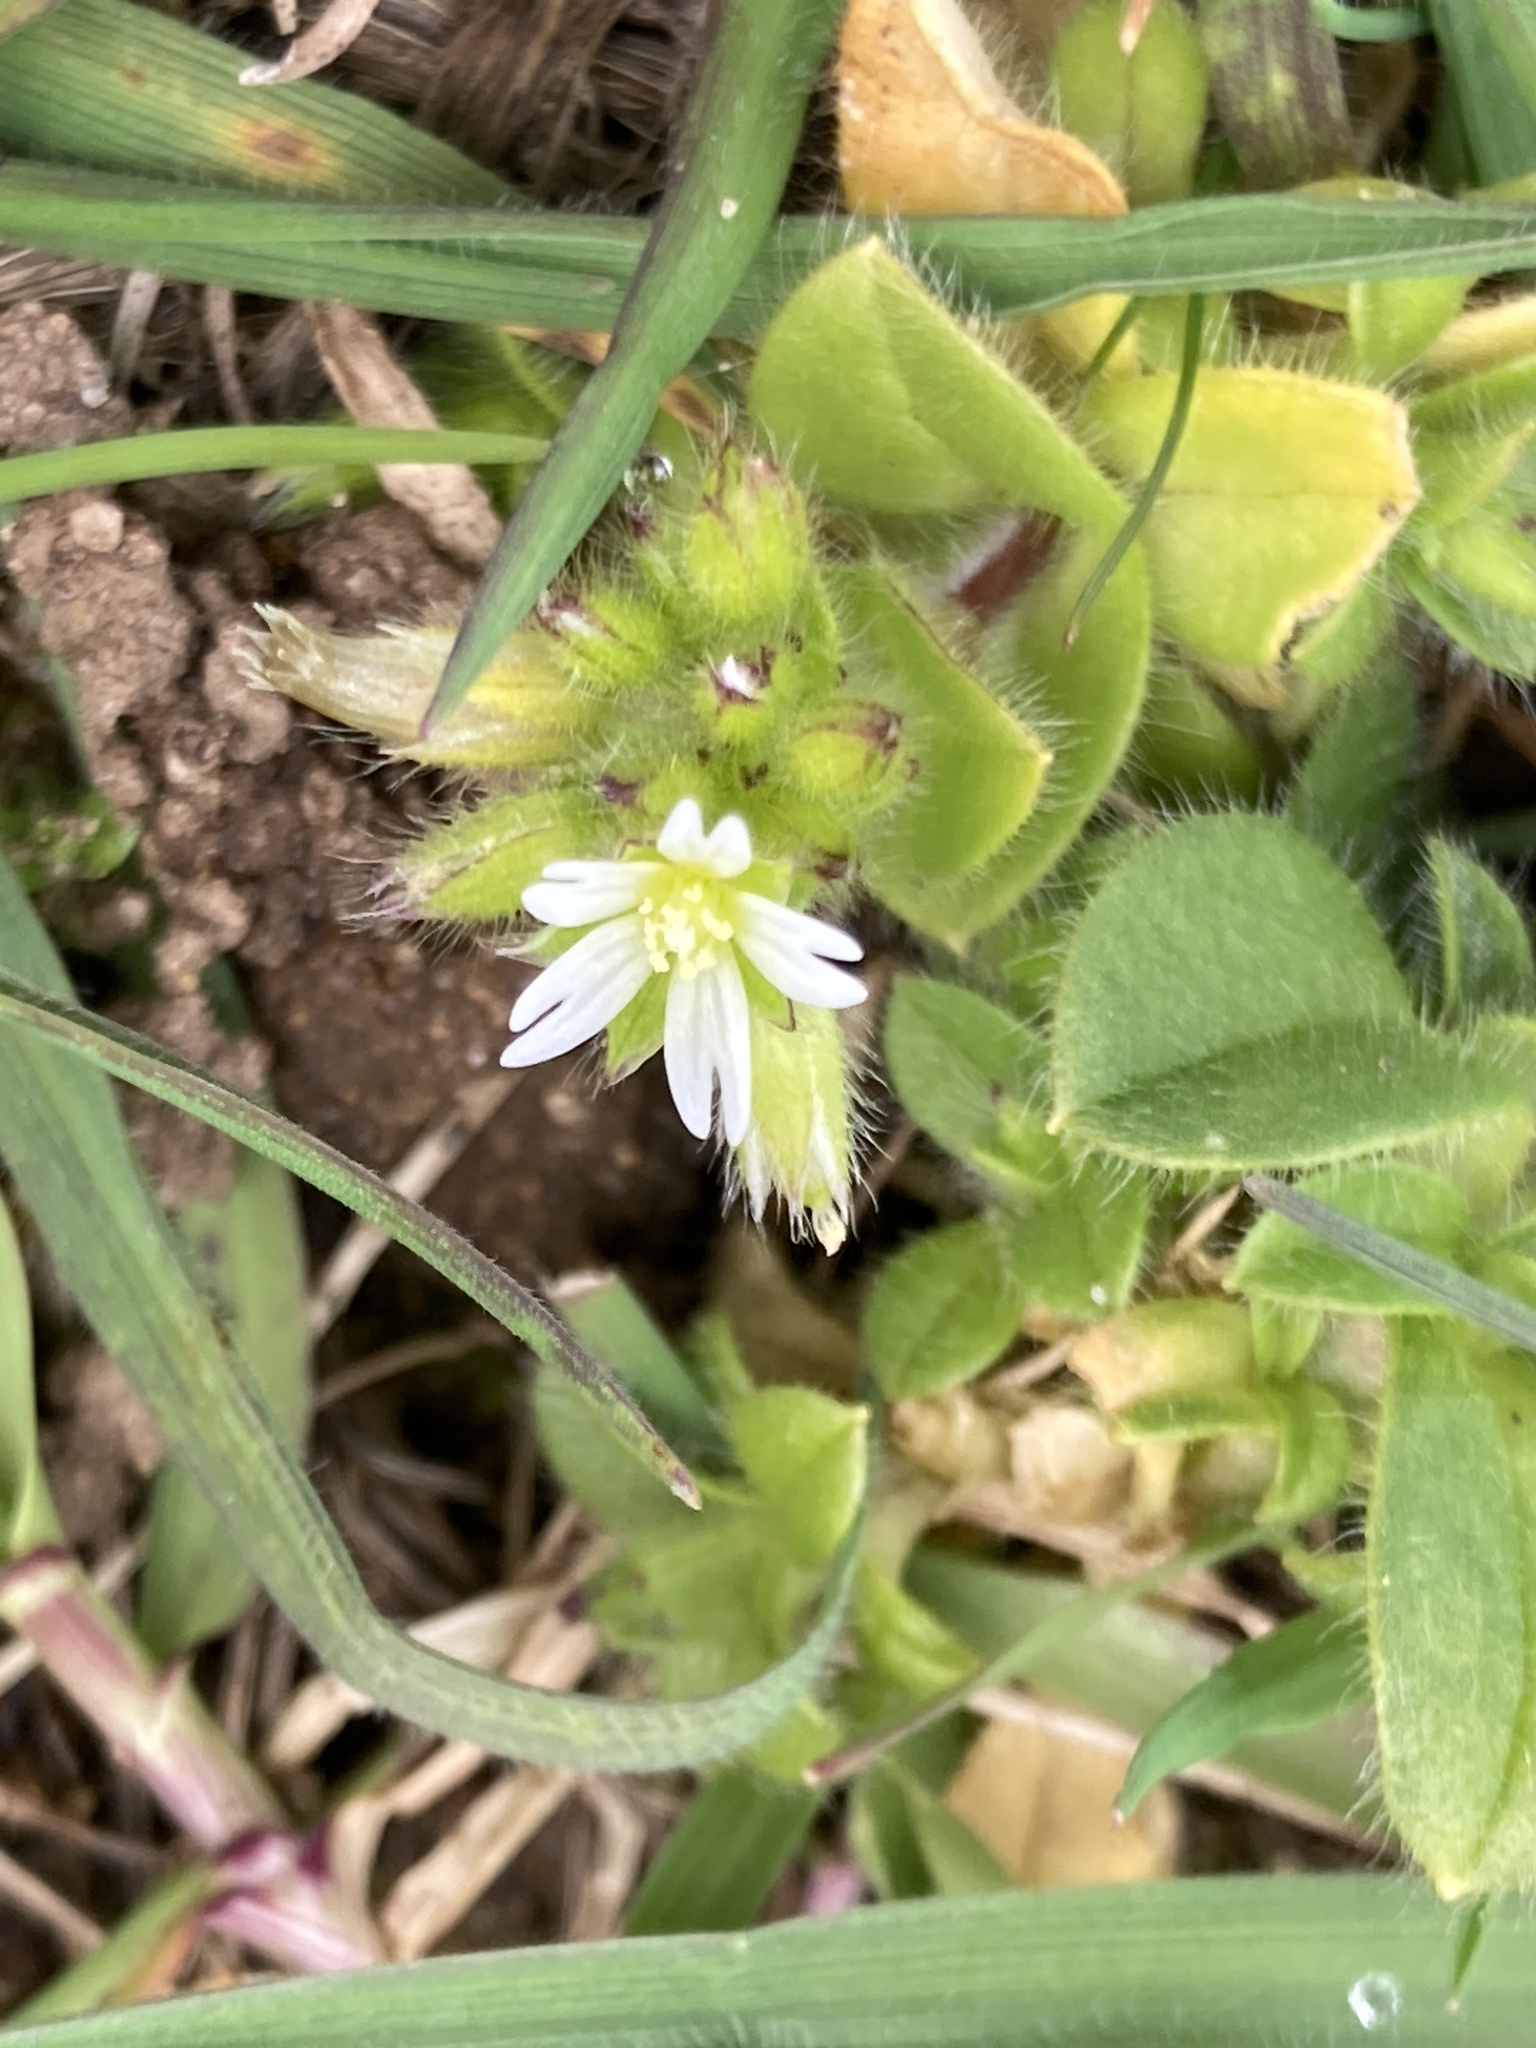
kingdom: Plantae
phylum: Tracheophyta
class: Magnoliopsida
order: Caryophyllales
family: Caryophyllaceae
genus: Cerastium
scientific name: Cerastium glomeratum
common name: Sticky chickweed
